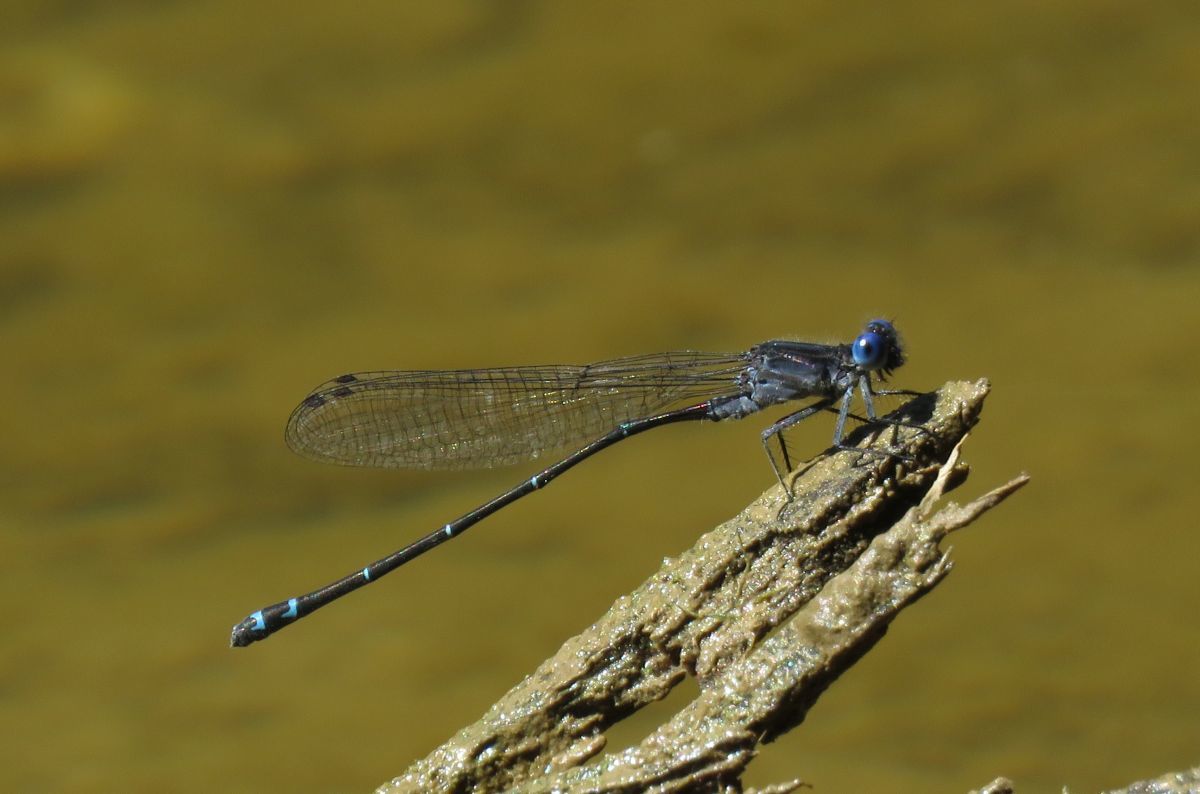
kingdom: Animalia
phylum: Arthropoda
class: Insecta
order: Odonata
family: Coenagrionidae
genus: Argia
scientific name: Argia translata
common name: Dusky dancer
